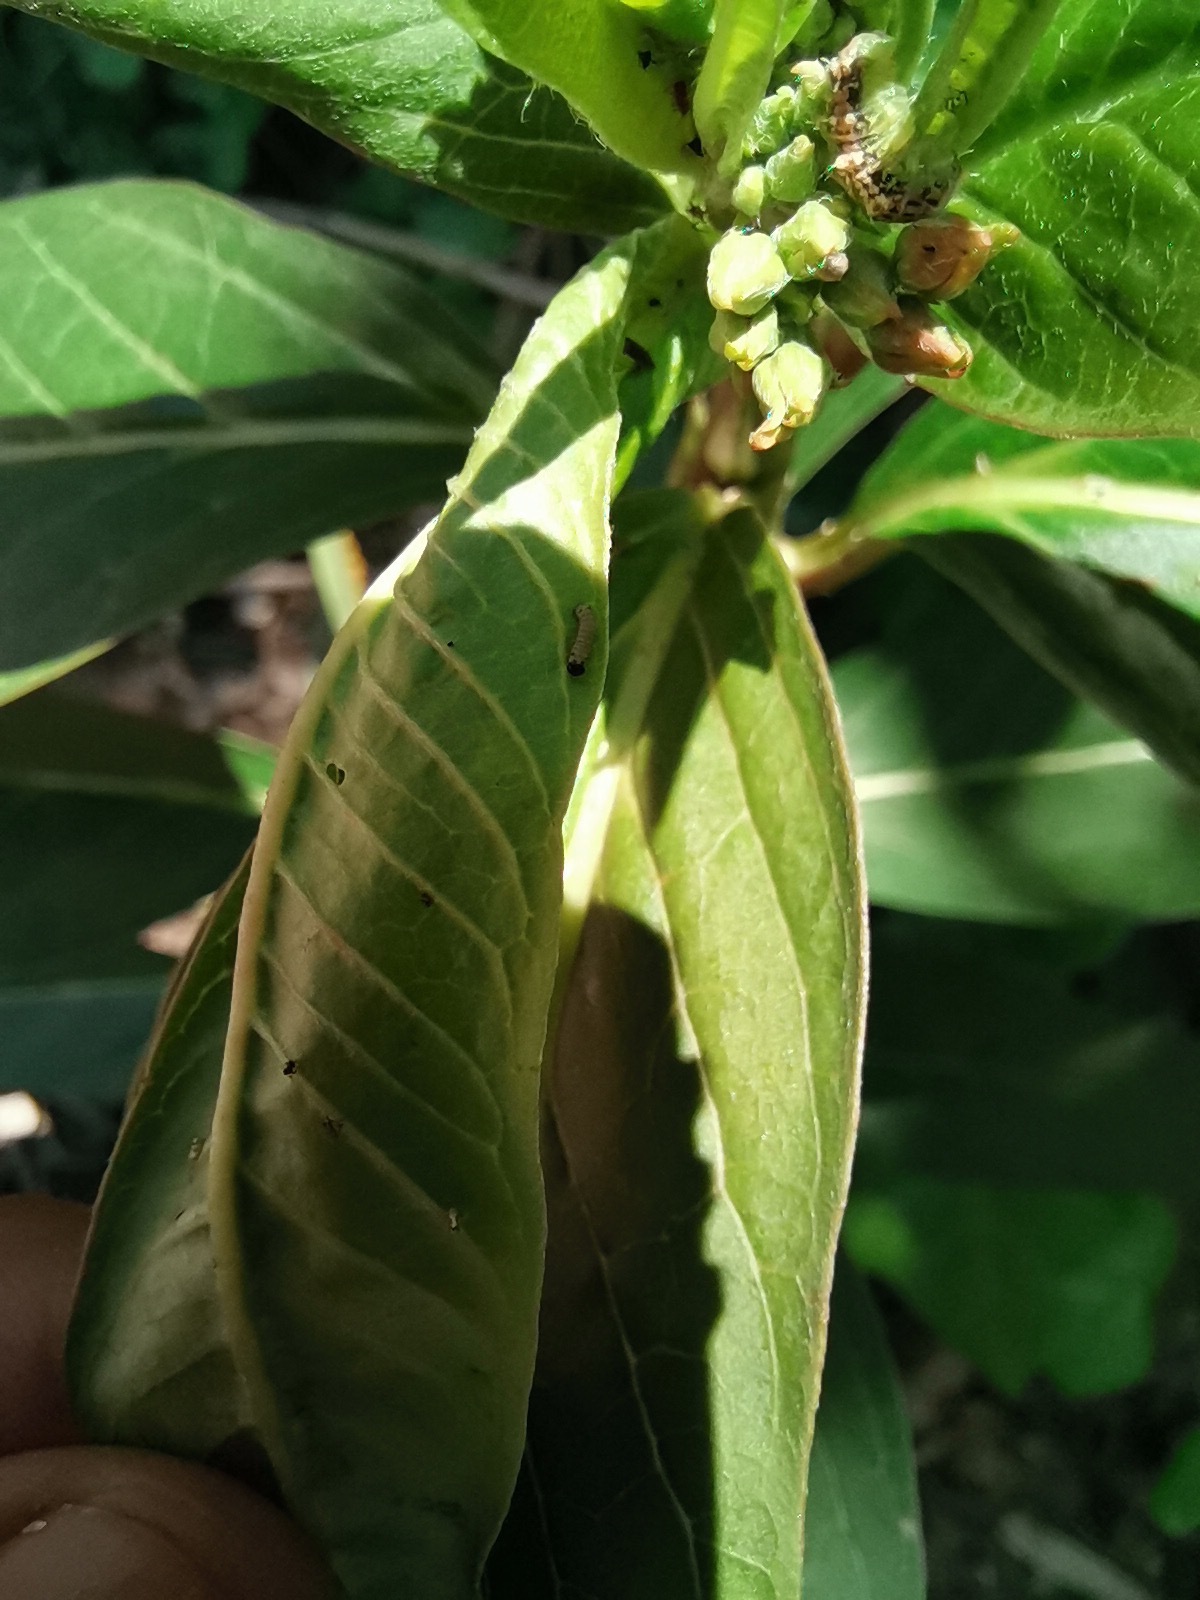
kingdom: Animalia
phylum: Arthropoda
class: Insecta
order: Lepidoptera
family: Nymphalidae
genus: Danaus
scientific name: Danaus plexippus
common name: Monarch
